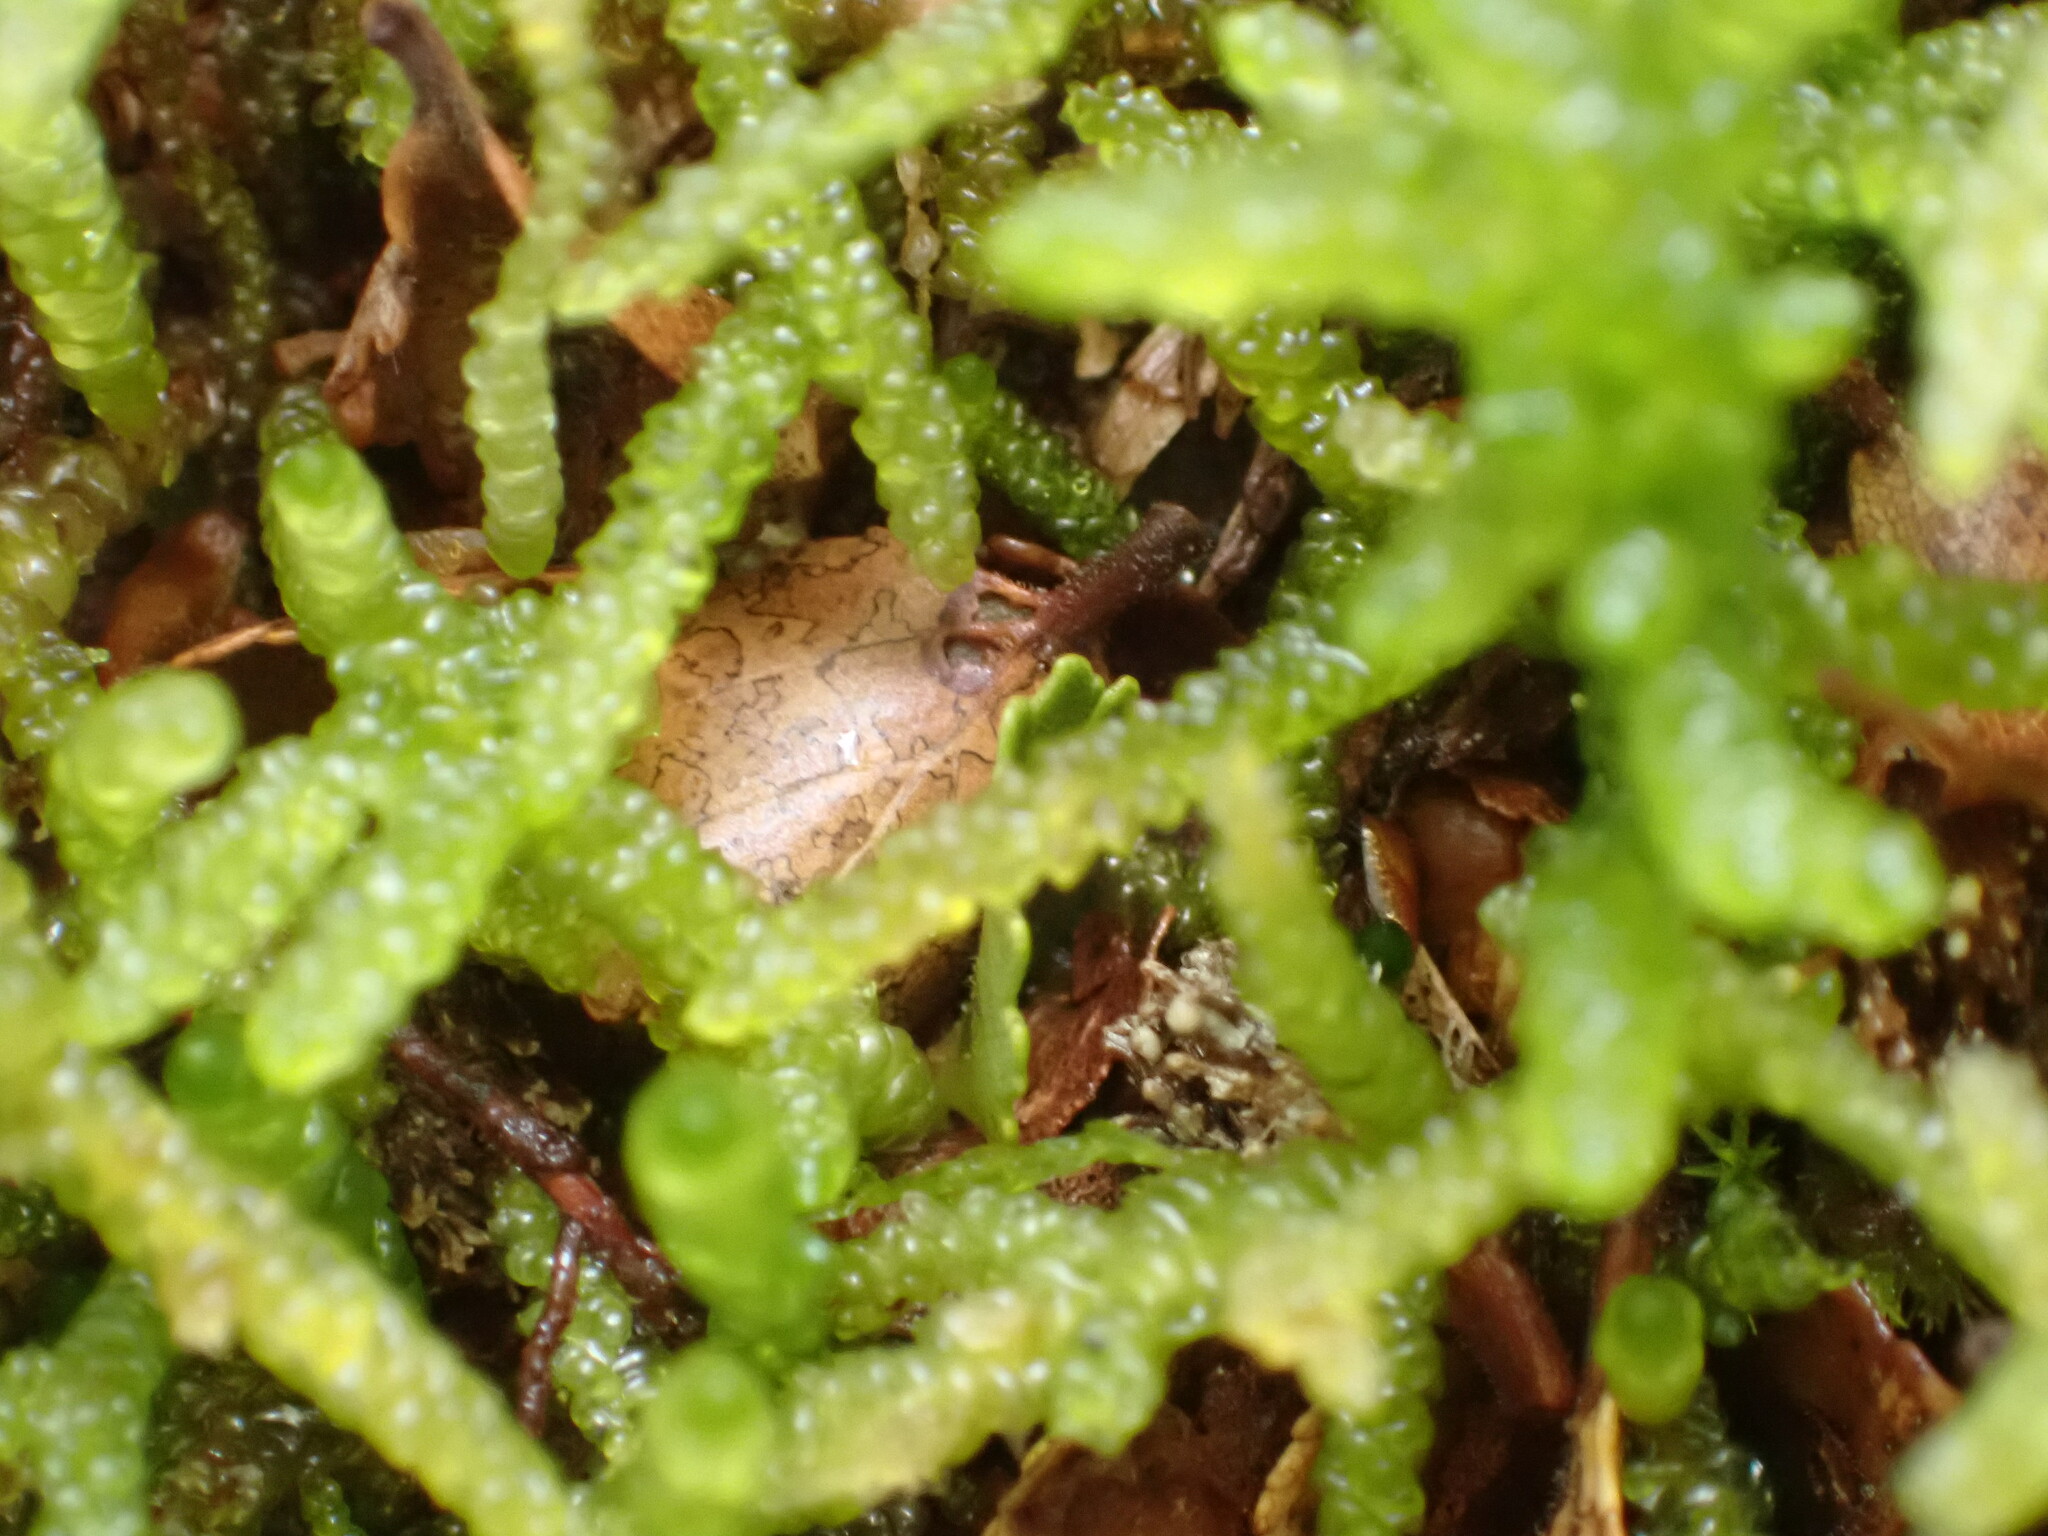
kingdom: Plantae
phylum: Bryophyta
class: Bryopsida
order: Hypnales
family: Lembophyllaceae
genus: Weymouthia
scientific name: Weymouthia mollis
